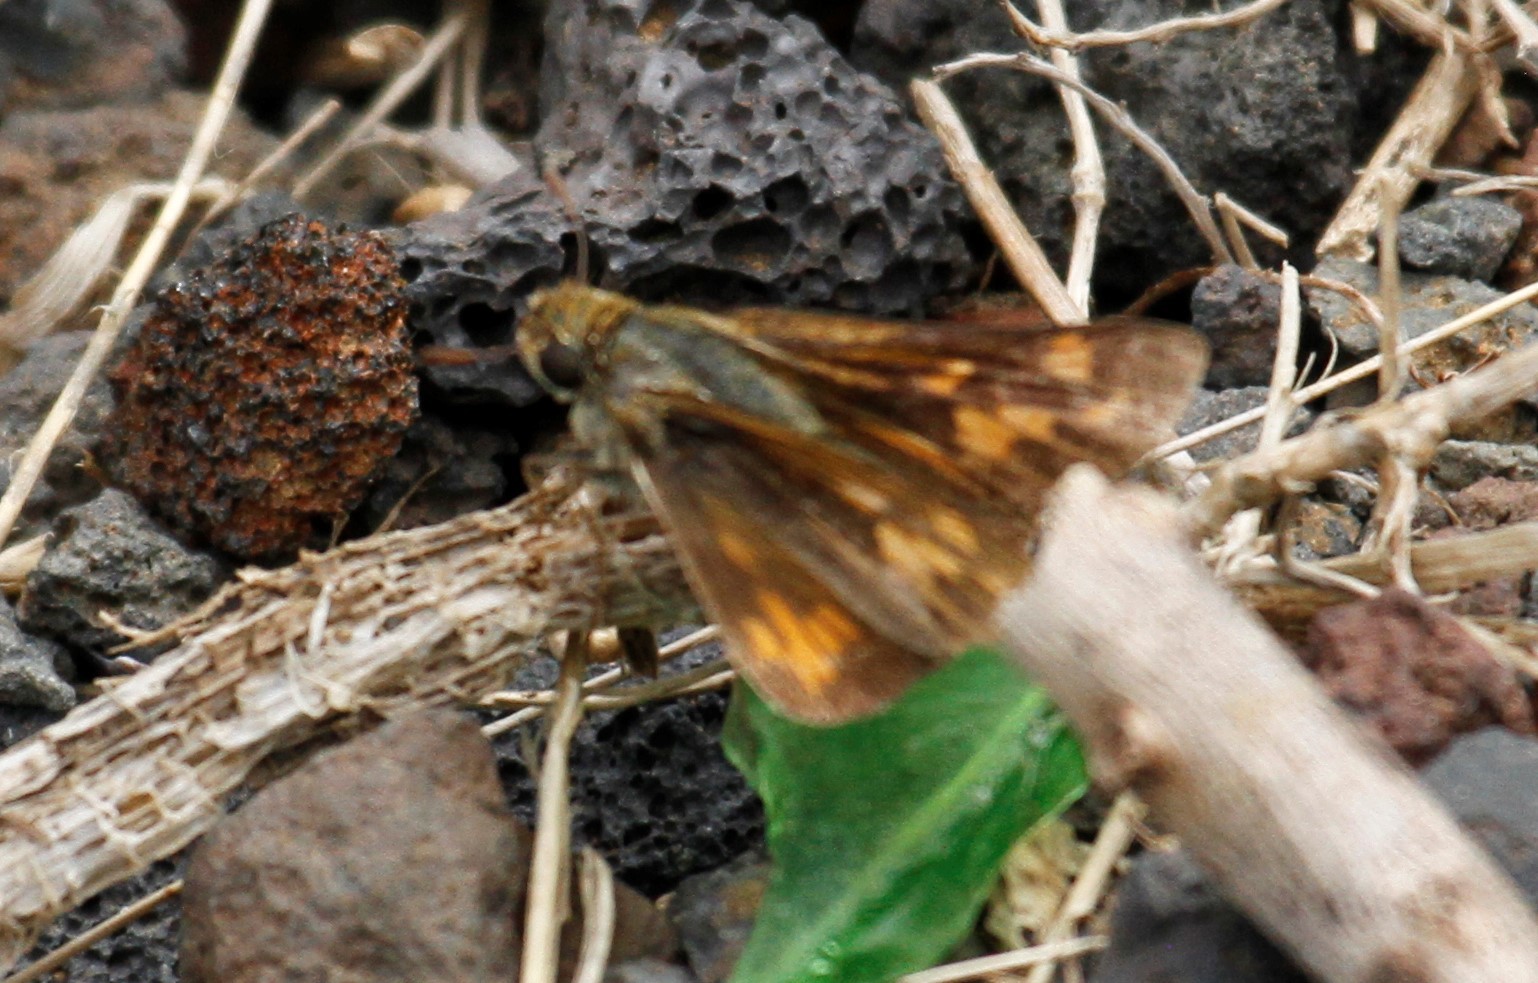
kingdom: Animalia
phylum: Arthropoda
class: Insecta
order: Lepidoptera
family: Hesperiidae
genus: Hylephila
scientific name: Hylephila phyleus
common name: Fiery skipper
